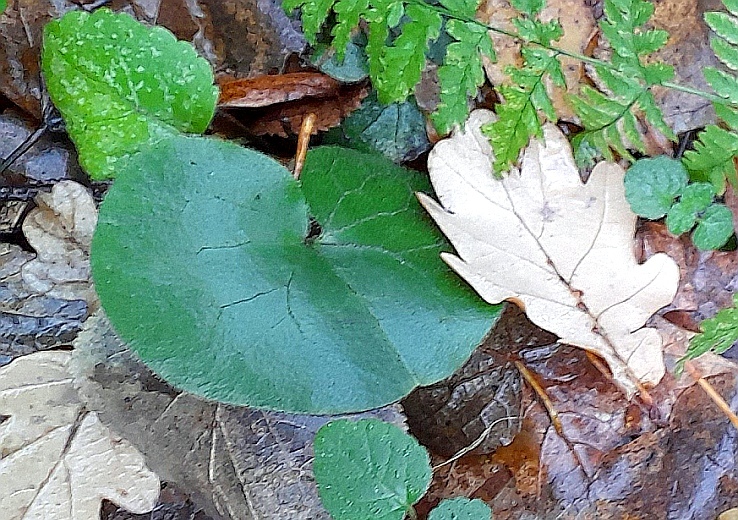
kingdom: Plantae
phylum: Tracheophyta
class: Magnoliopsida
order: Piperales
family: Aristolochiaceae
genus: Asarum
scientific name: Asarum europaeum
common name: Asarabacca
